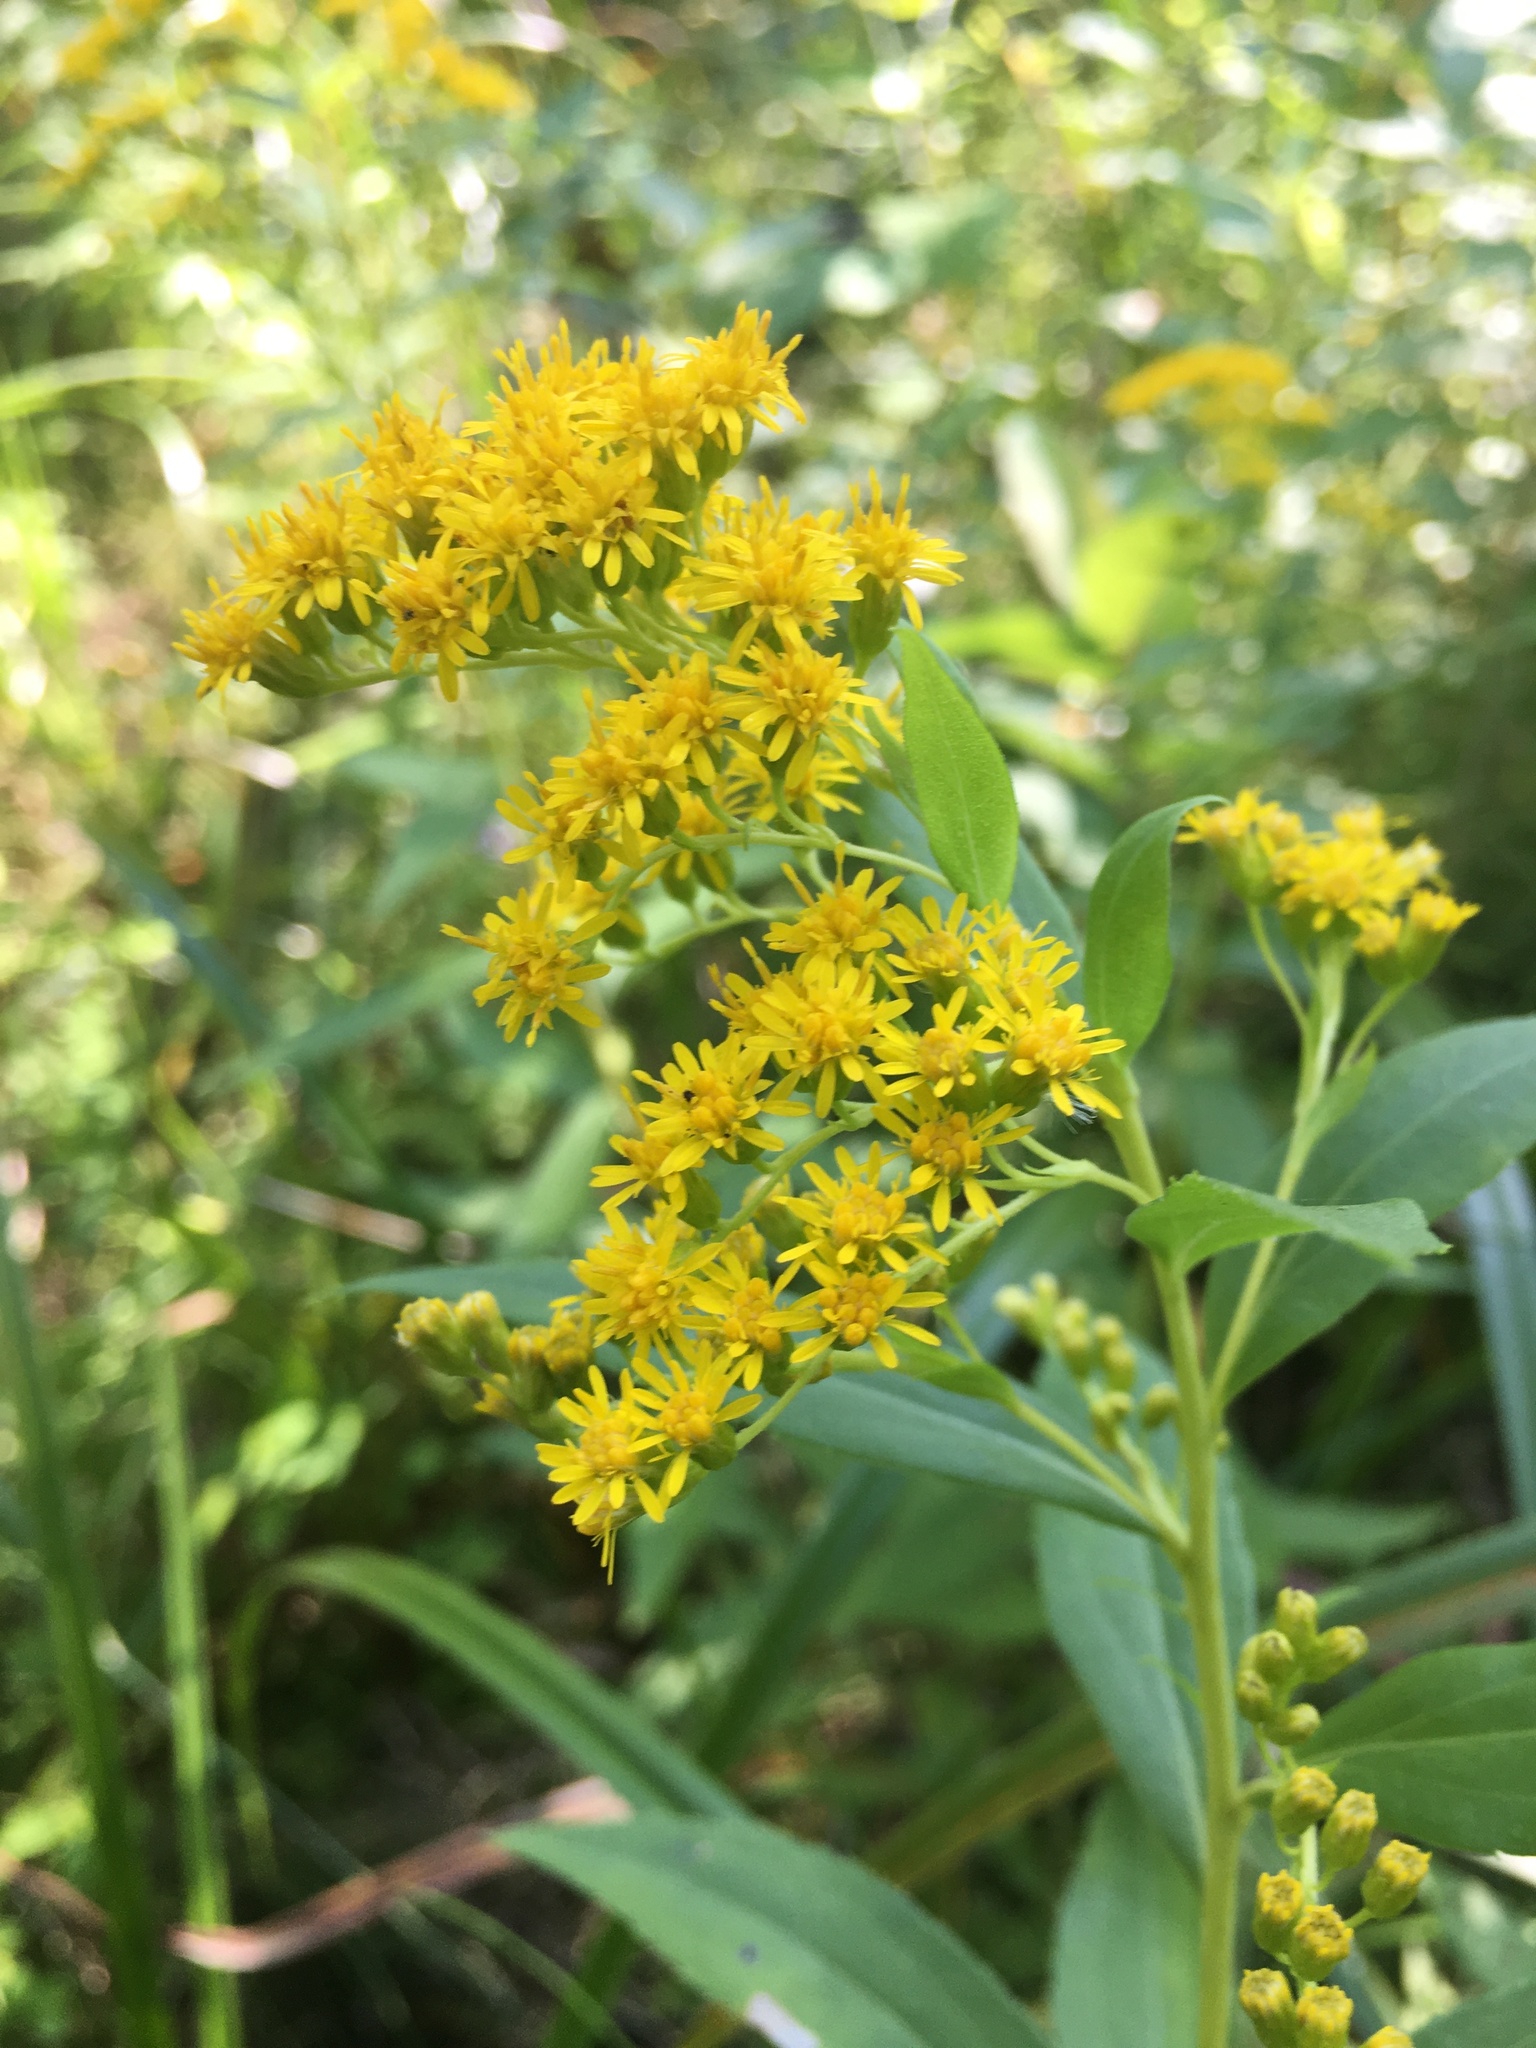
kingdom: Plantae
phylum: Tracheophyta
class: Magnoliopsida
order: Asterales
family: Asteraceae
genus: Solidago
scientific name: Solidago gigantea
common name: Giant goldenrod
